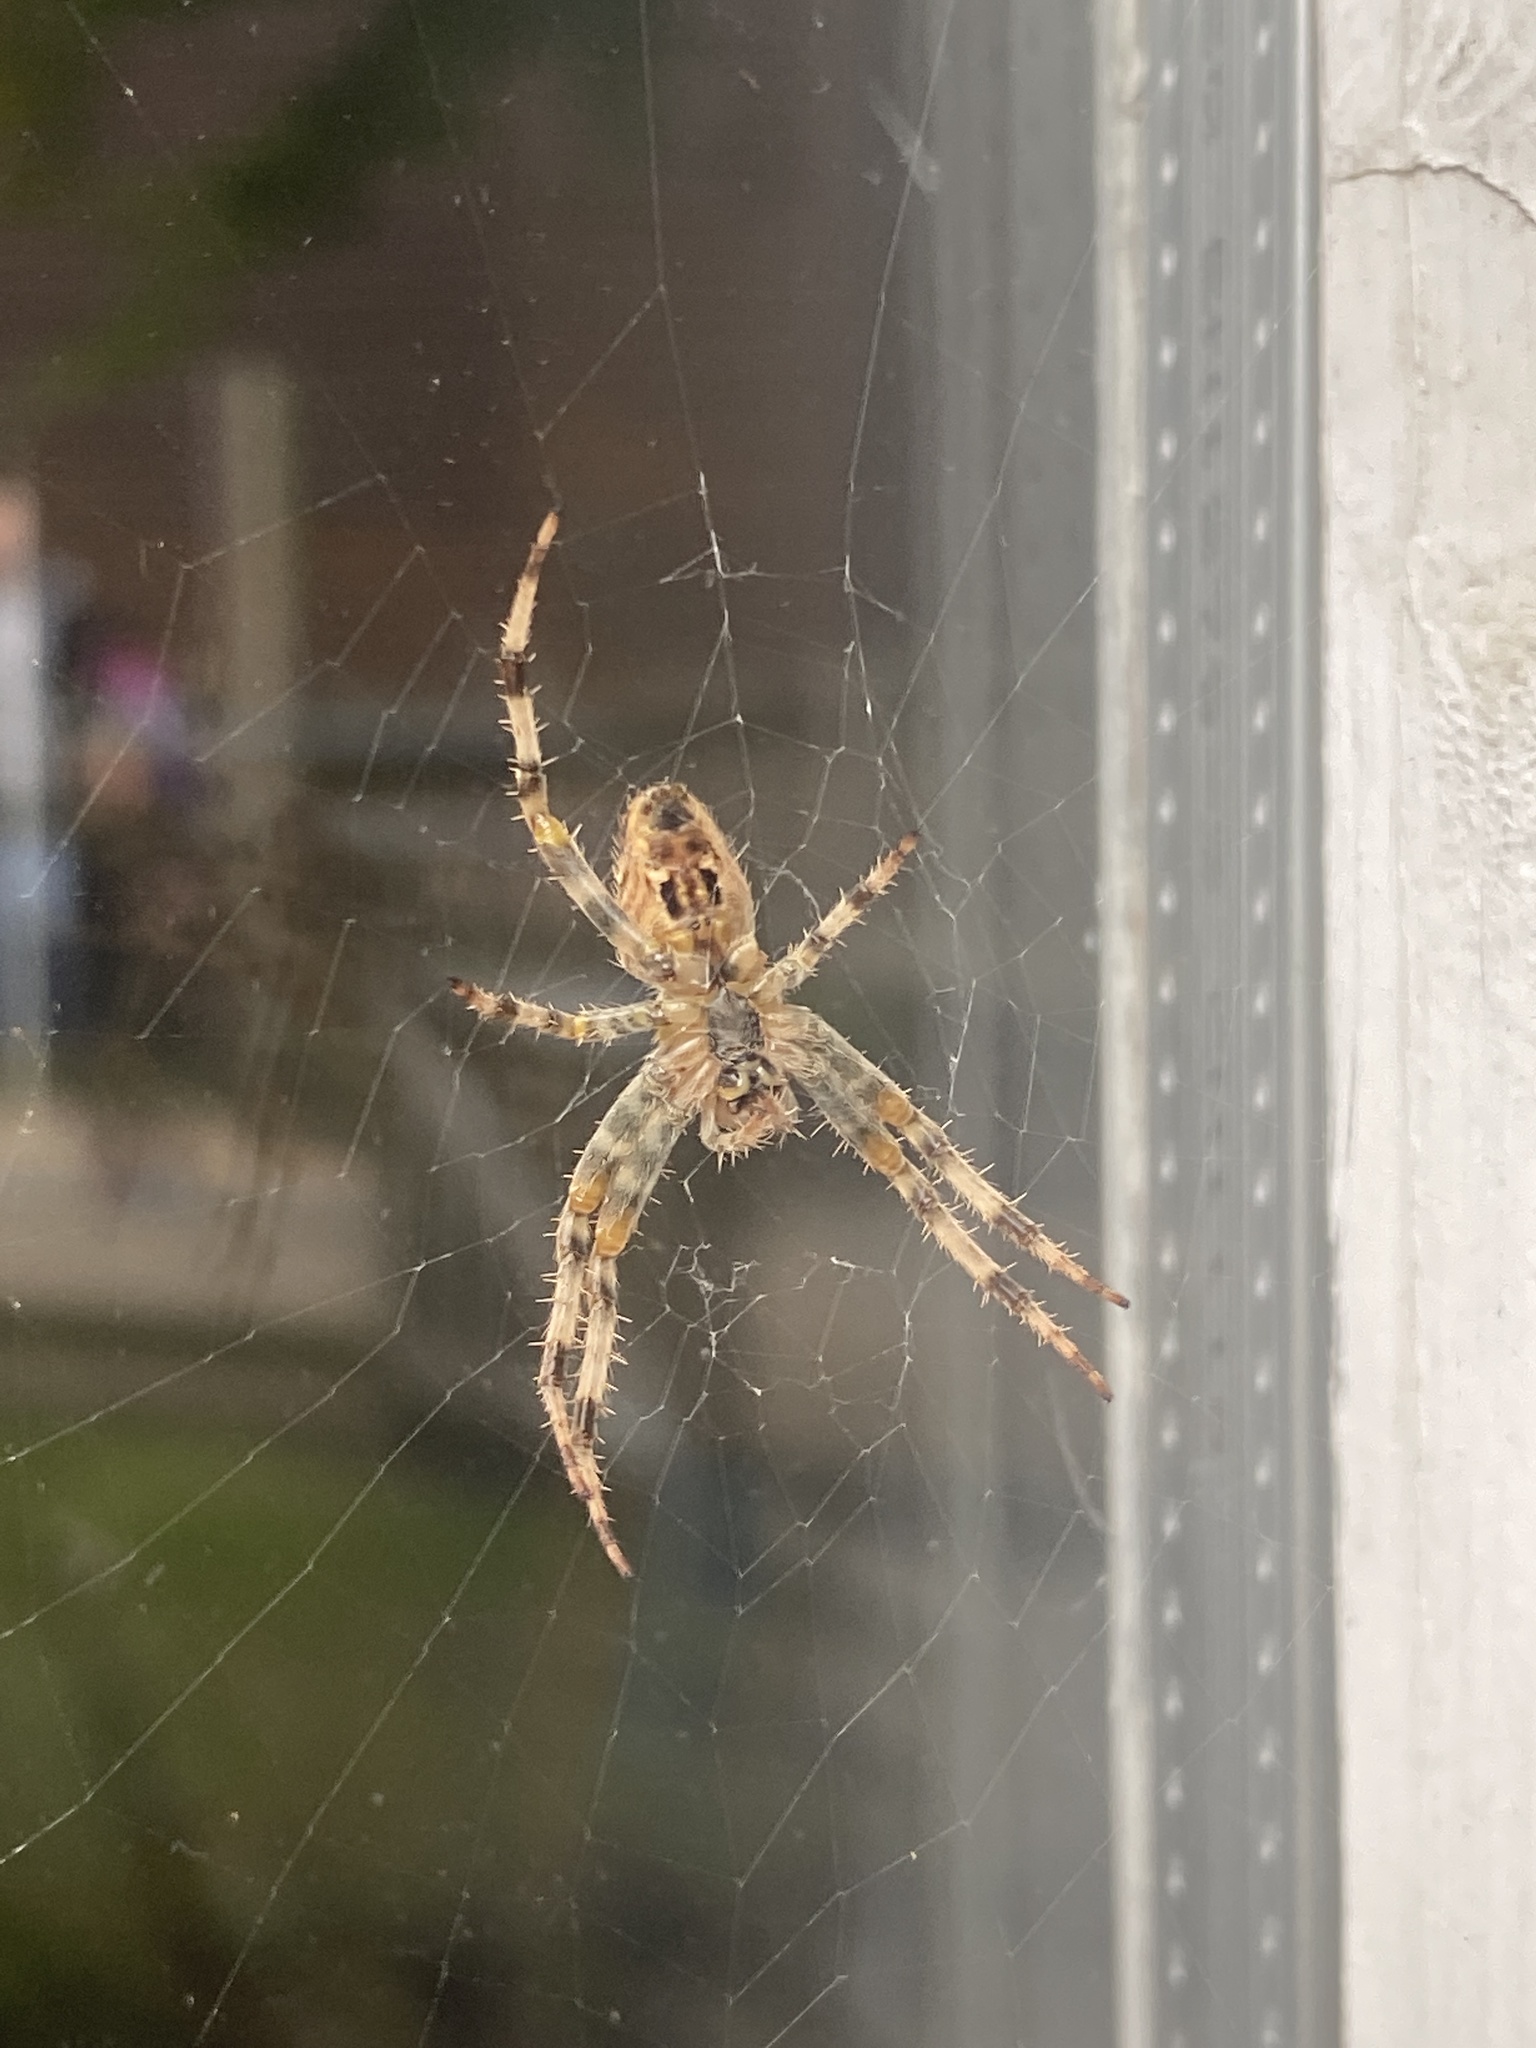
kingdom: Animalia
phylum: Arthropoda
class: Arachnida
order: Araneae
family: Araneidae
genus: Araneus
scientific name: Araneus diadematus
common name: Cross orbweaver
